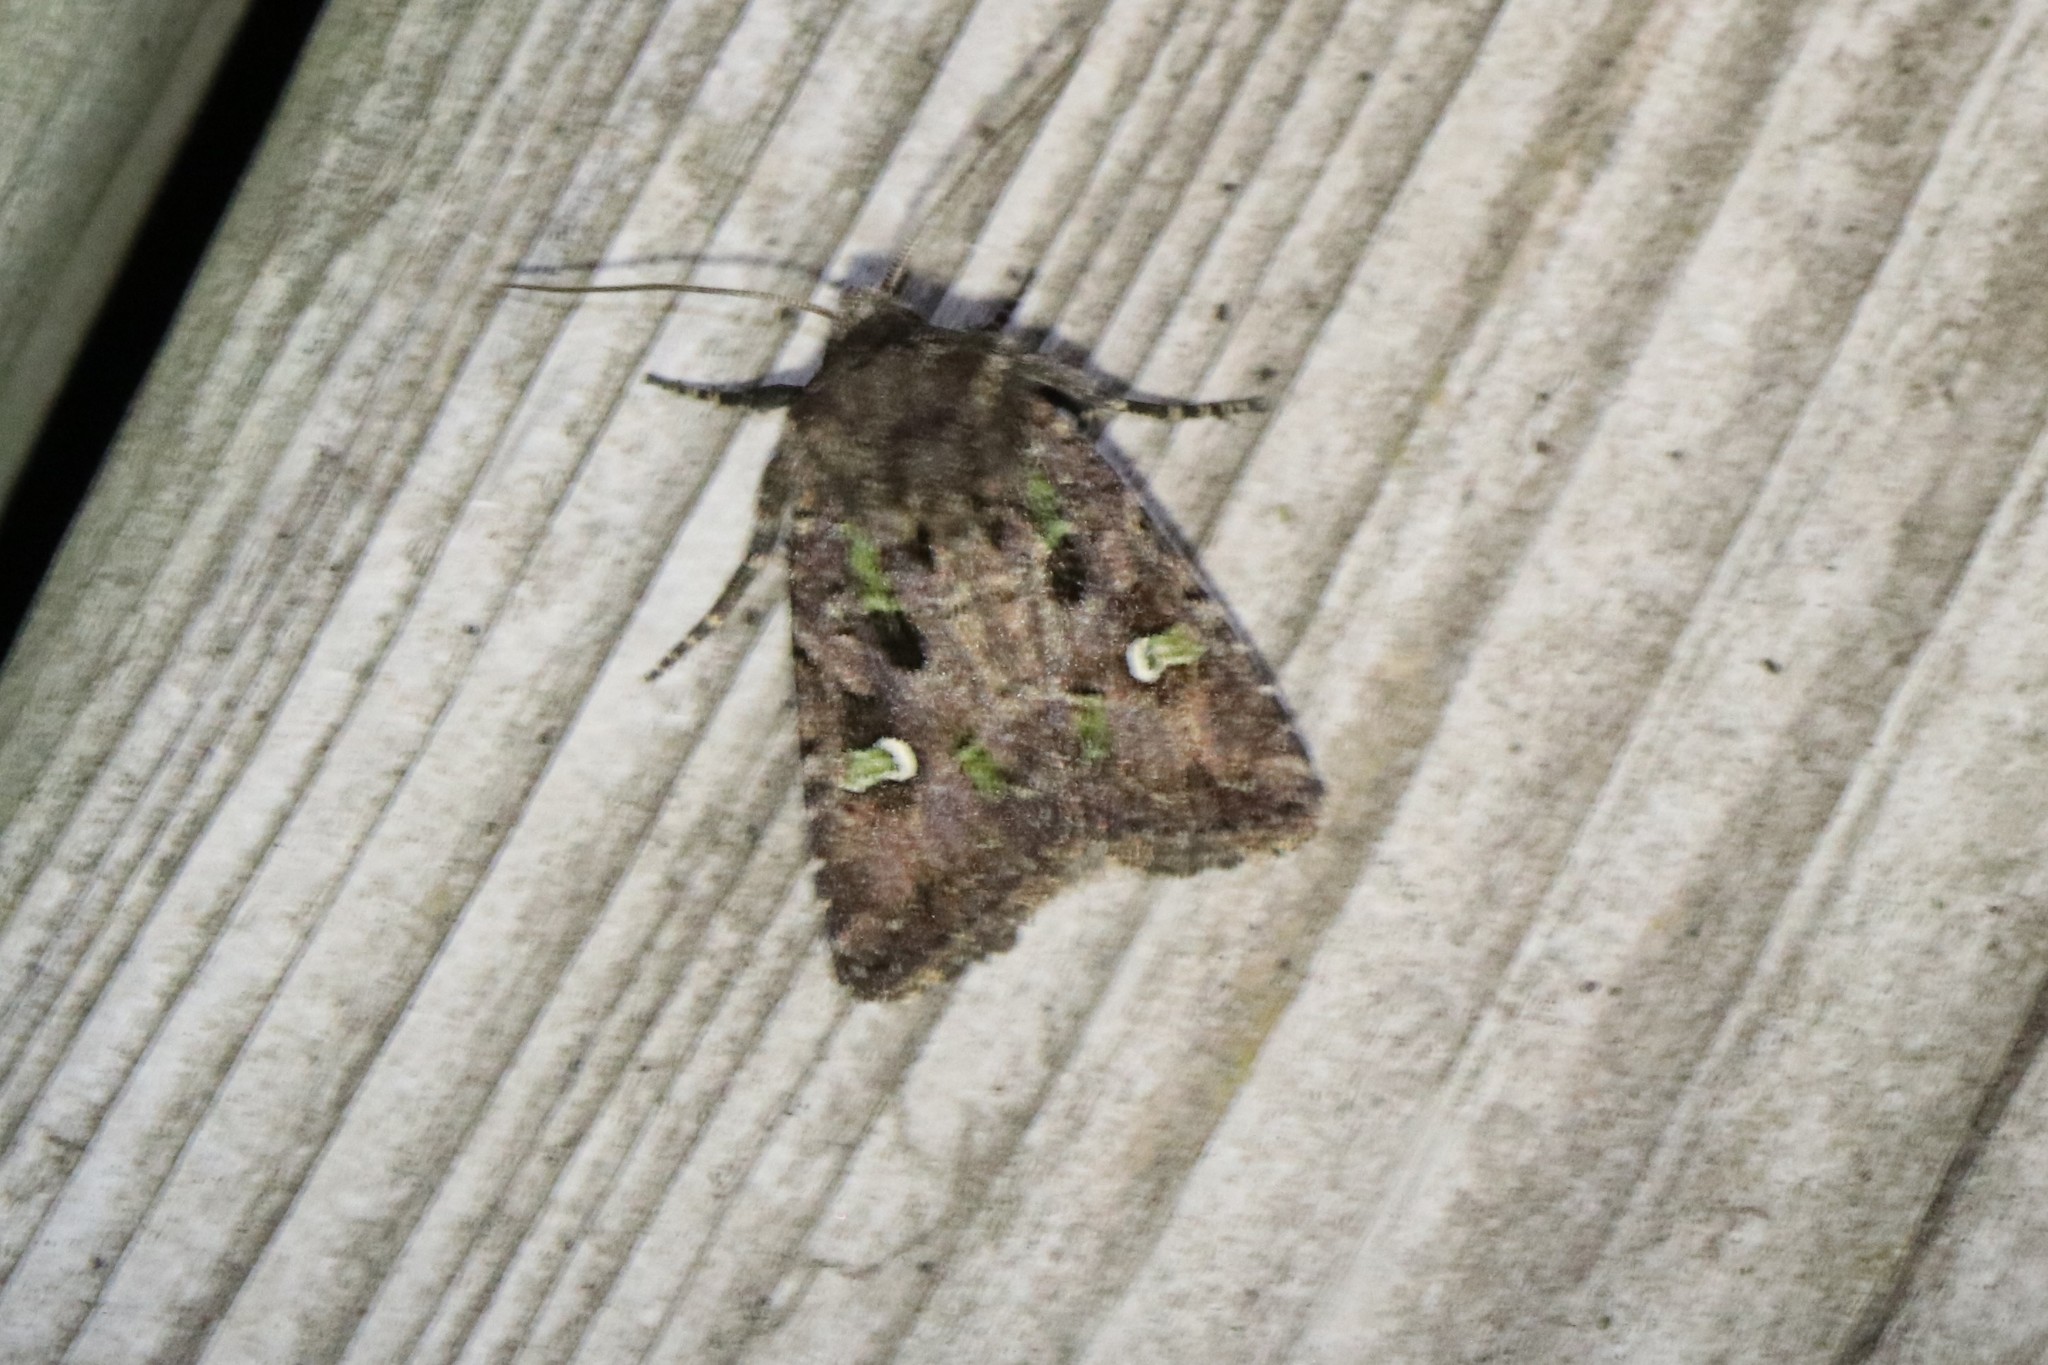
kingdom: Animalia
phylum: Arthropoda
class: Insecta
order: Lepidoptera
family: Noctuidae
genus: Lacinipolia
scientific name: Lacinipolia renigera
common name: Kidney-spotted minor
